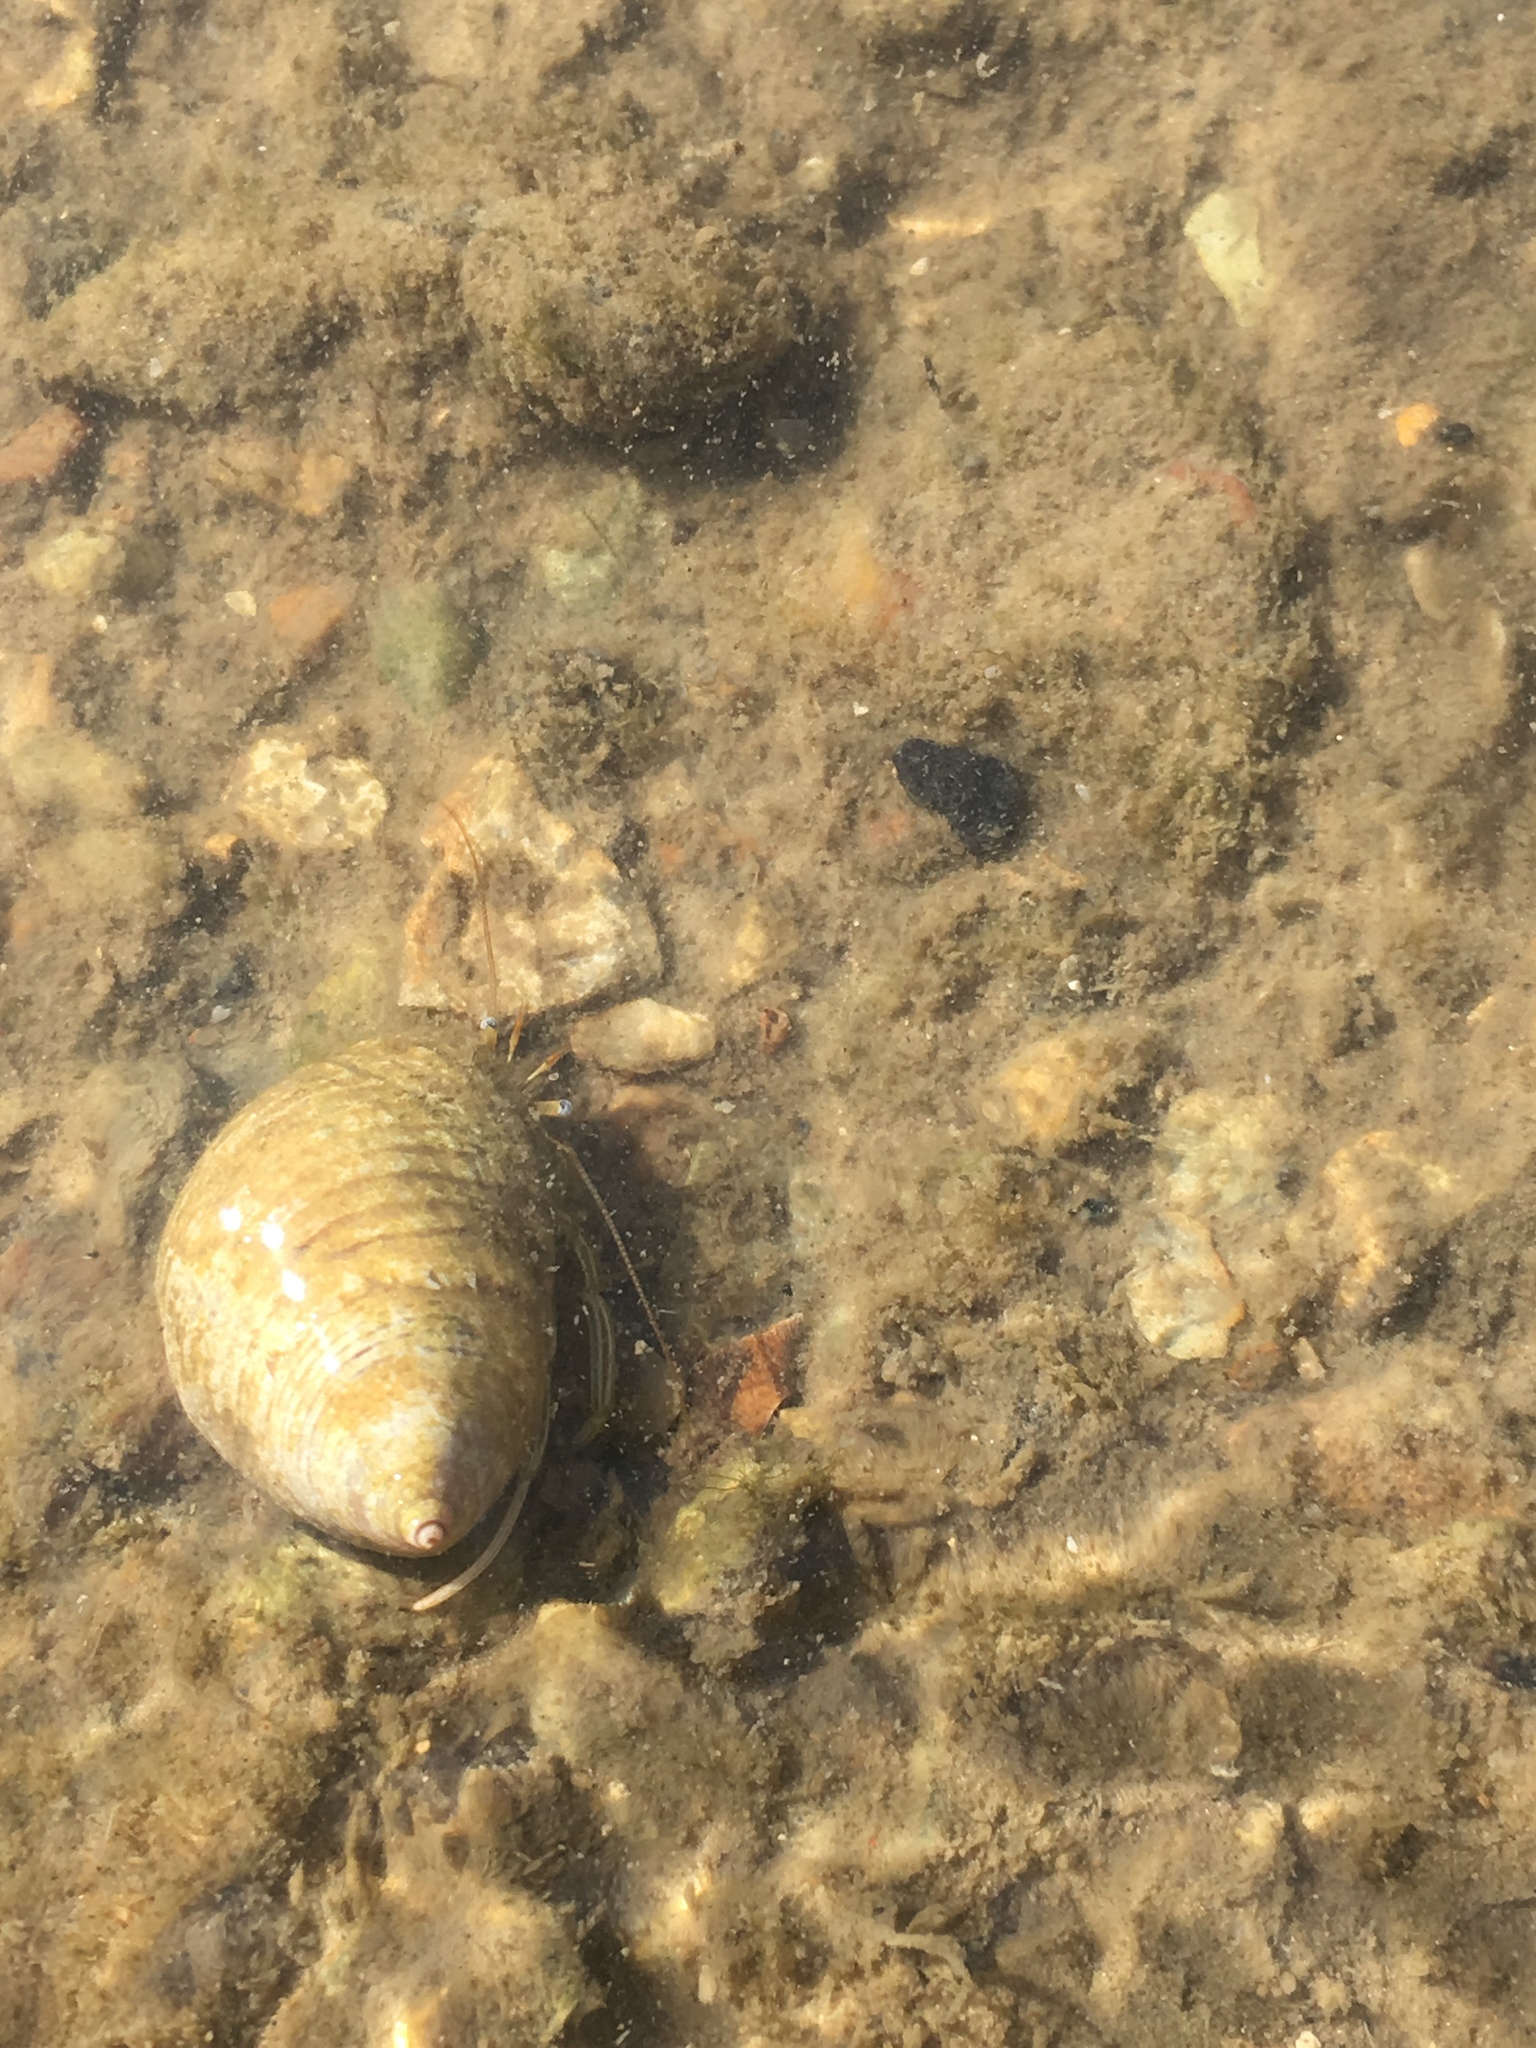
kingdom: Animalia
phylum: Arthropoda
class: Malacostraca
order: Decapoda
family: Diogenidae
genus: Clibanarius
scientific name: Clibanarius vittatus
